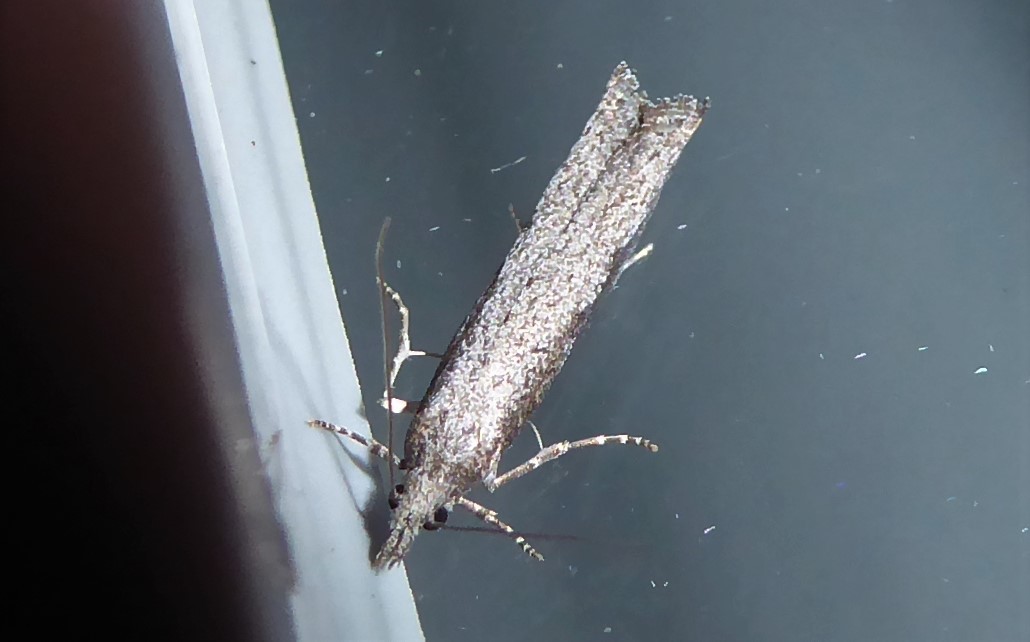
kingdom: Animalia
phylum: Arthropoda
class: Insecta
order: Lepidoptera
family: Tortricidae
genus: Strepsicrates
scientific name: Strepsicrates infensa
